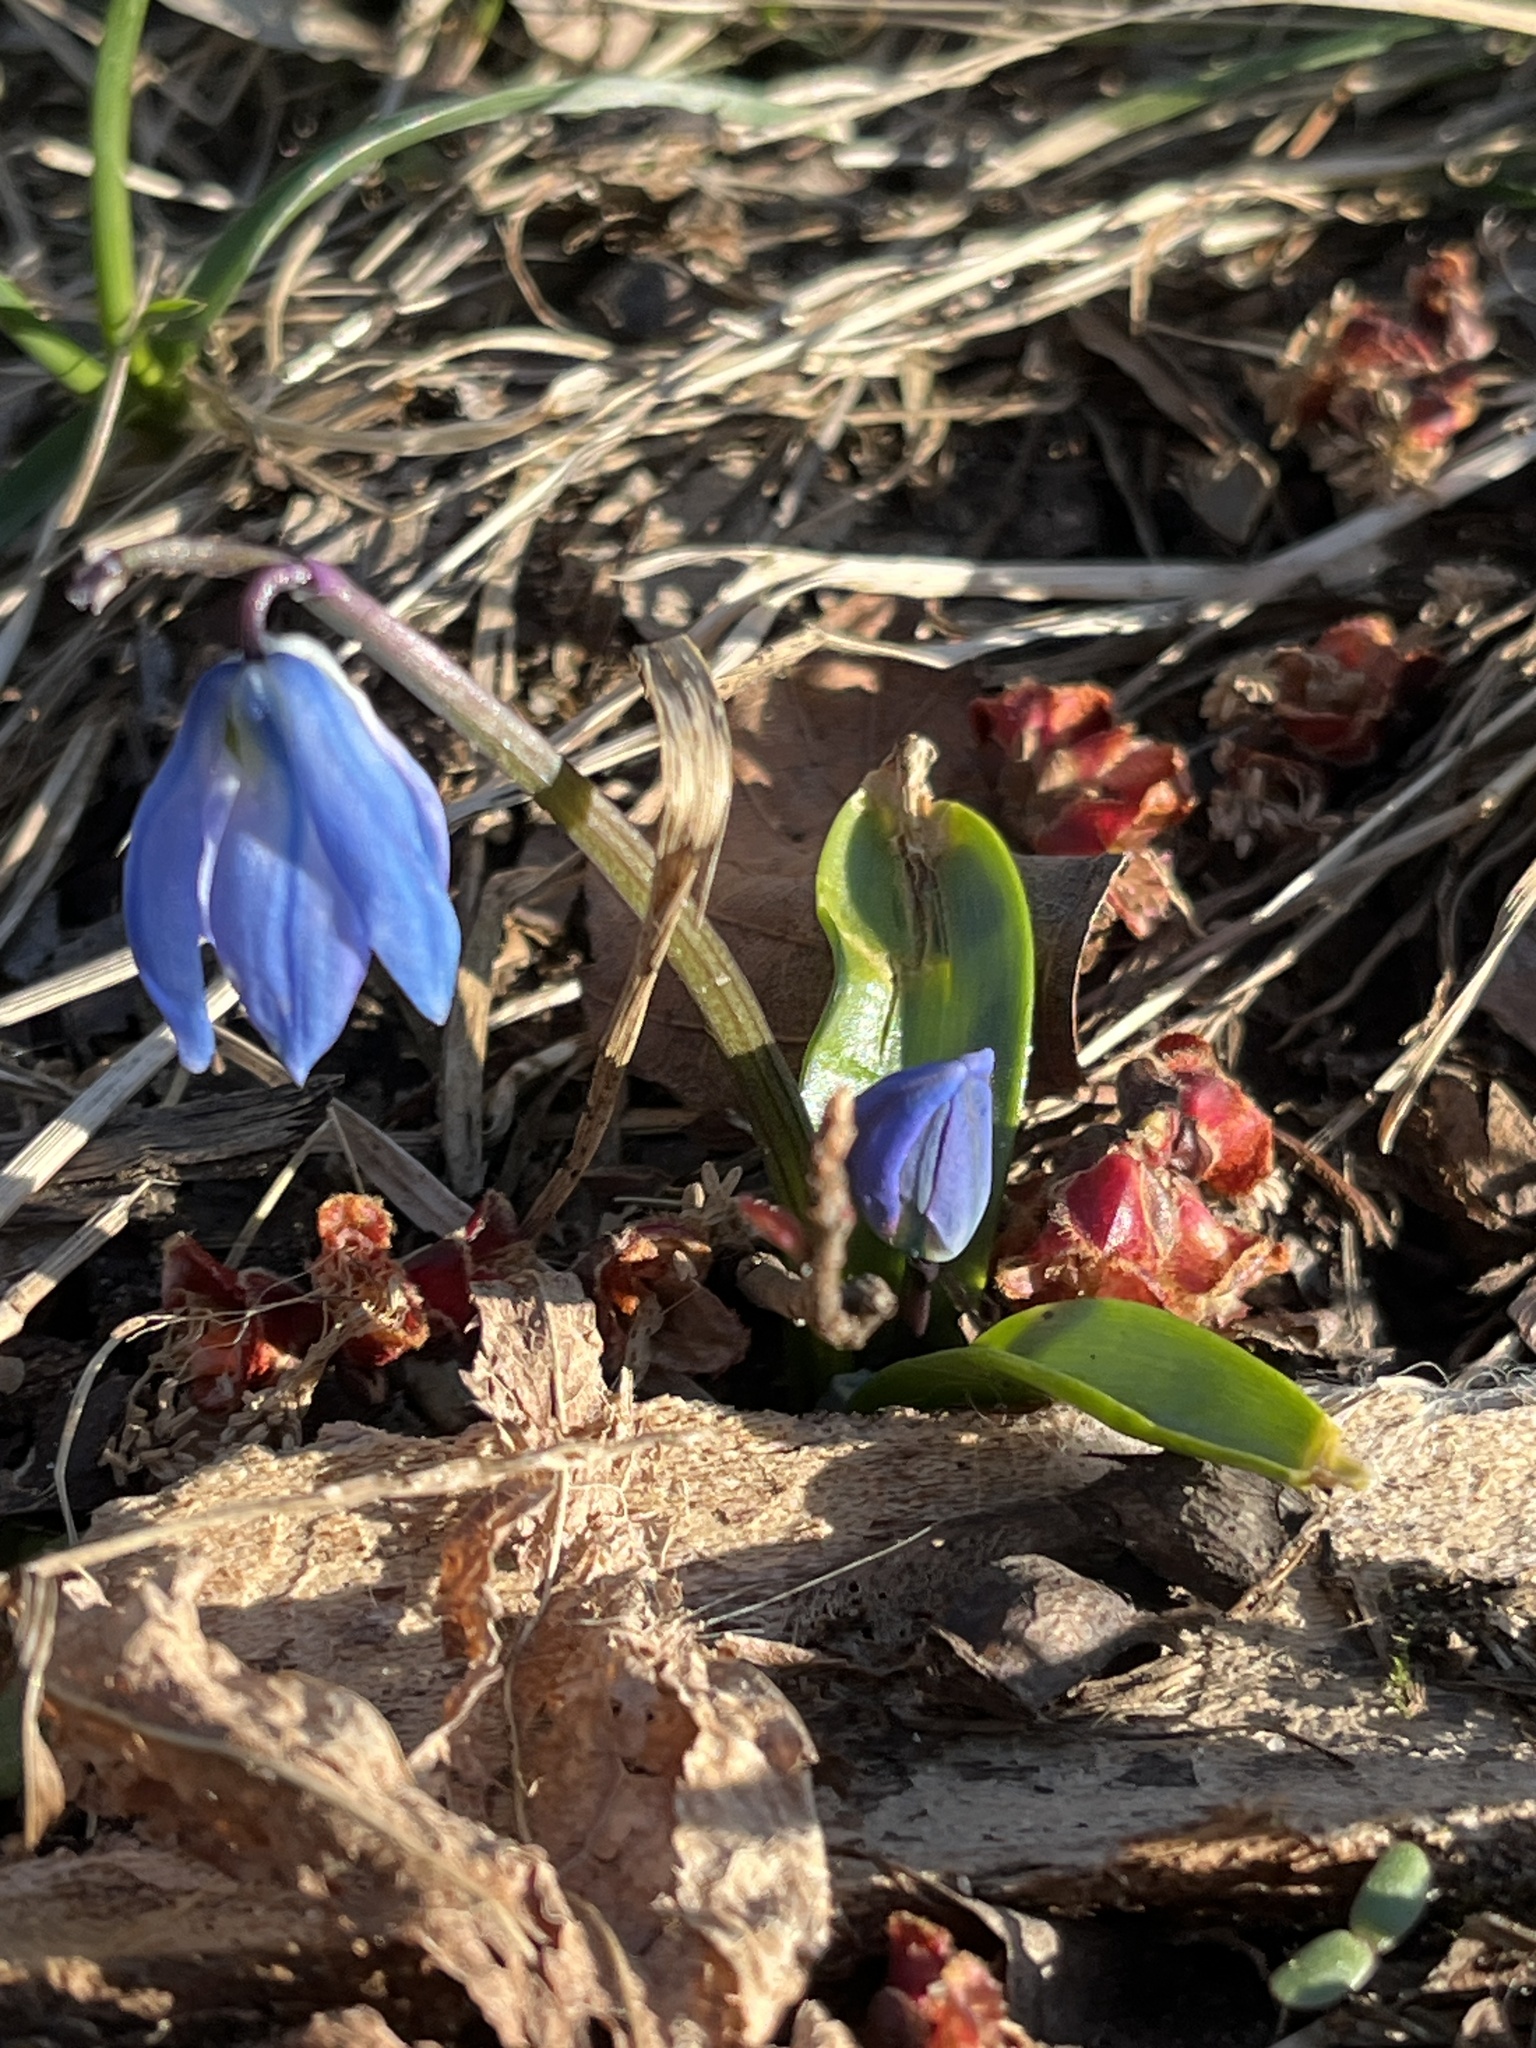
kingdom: Plantae
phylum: Tracheophyta
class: Liliopsida
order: Asparagales
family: Asparagaceae
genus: Scilla
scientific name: Scilla siberica
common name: Siberian squill
